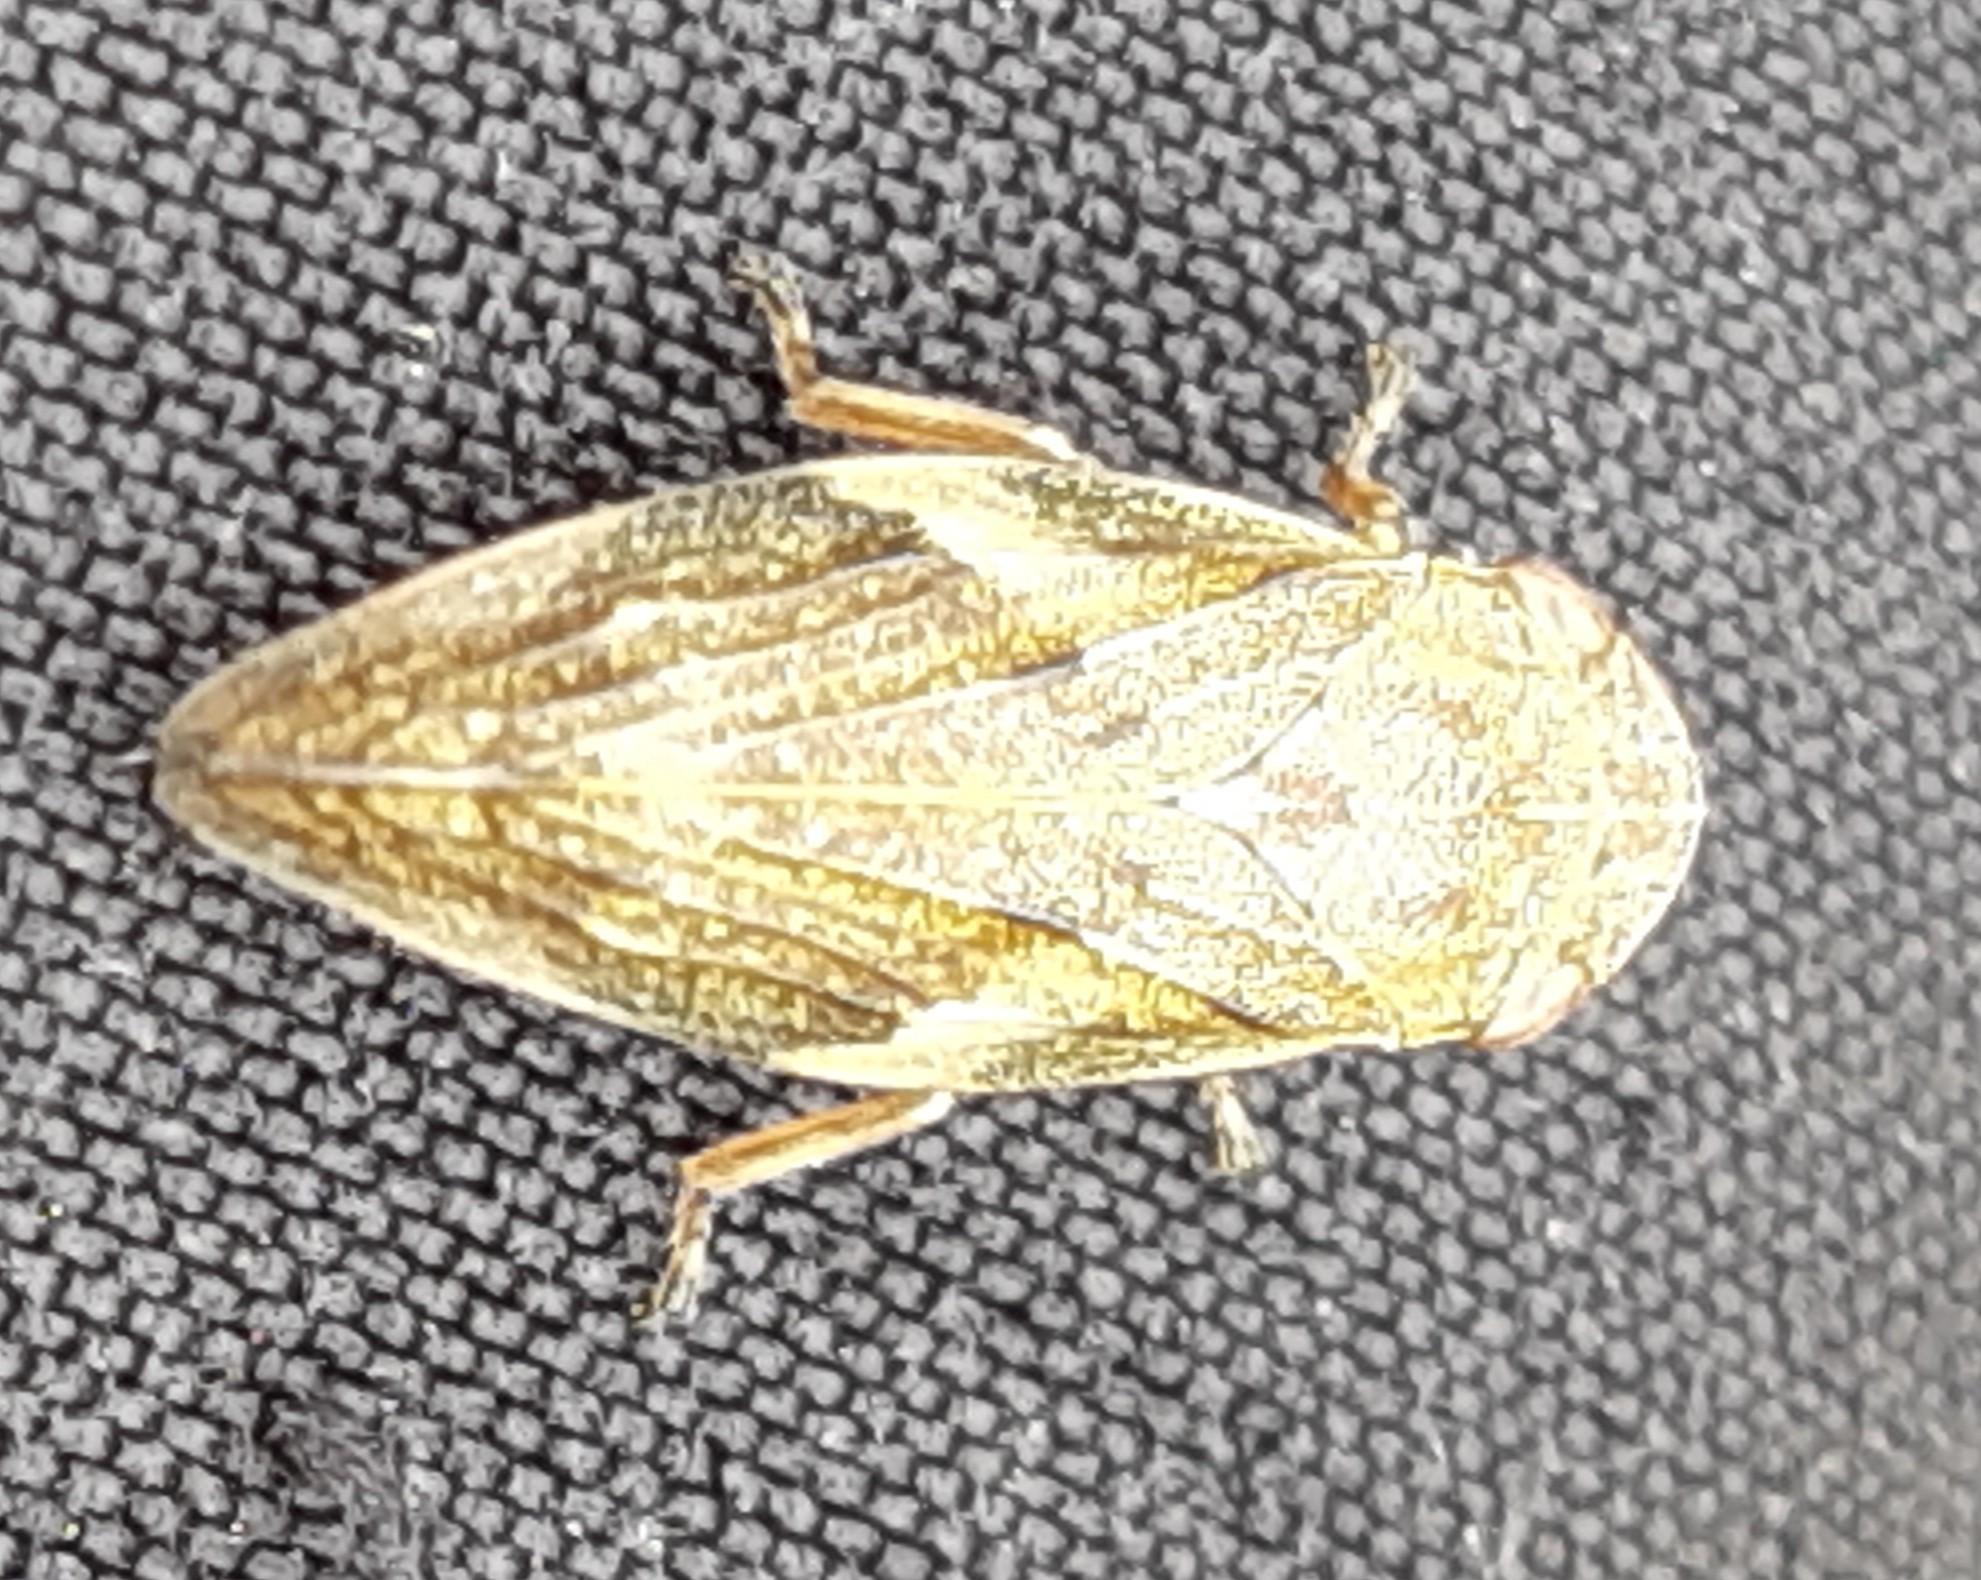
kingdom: Animalia
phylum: Arthropoda
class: Insecta
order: Hemiptera
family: Aphrophoridae
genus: Aphrophora
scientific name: Aphrophora alni
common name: European alder spittlebug
